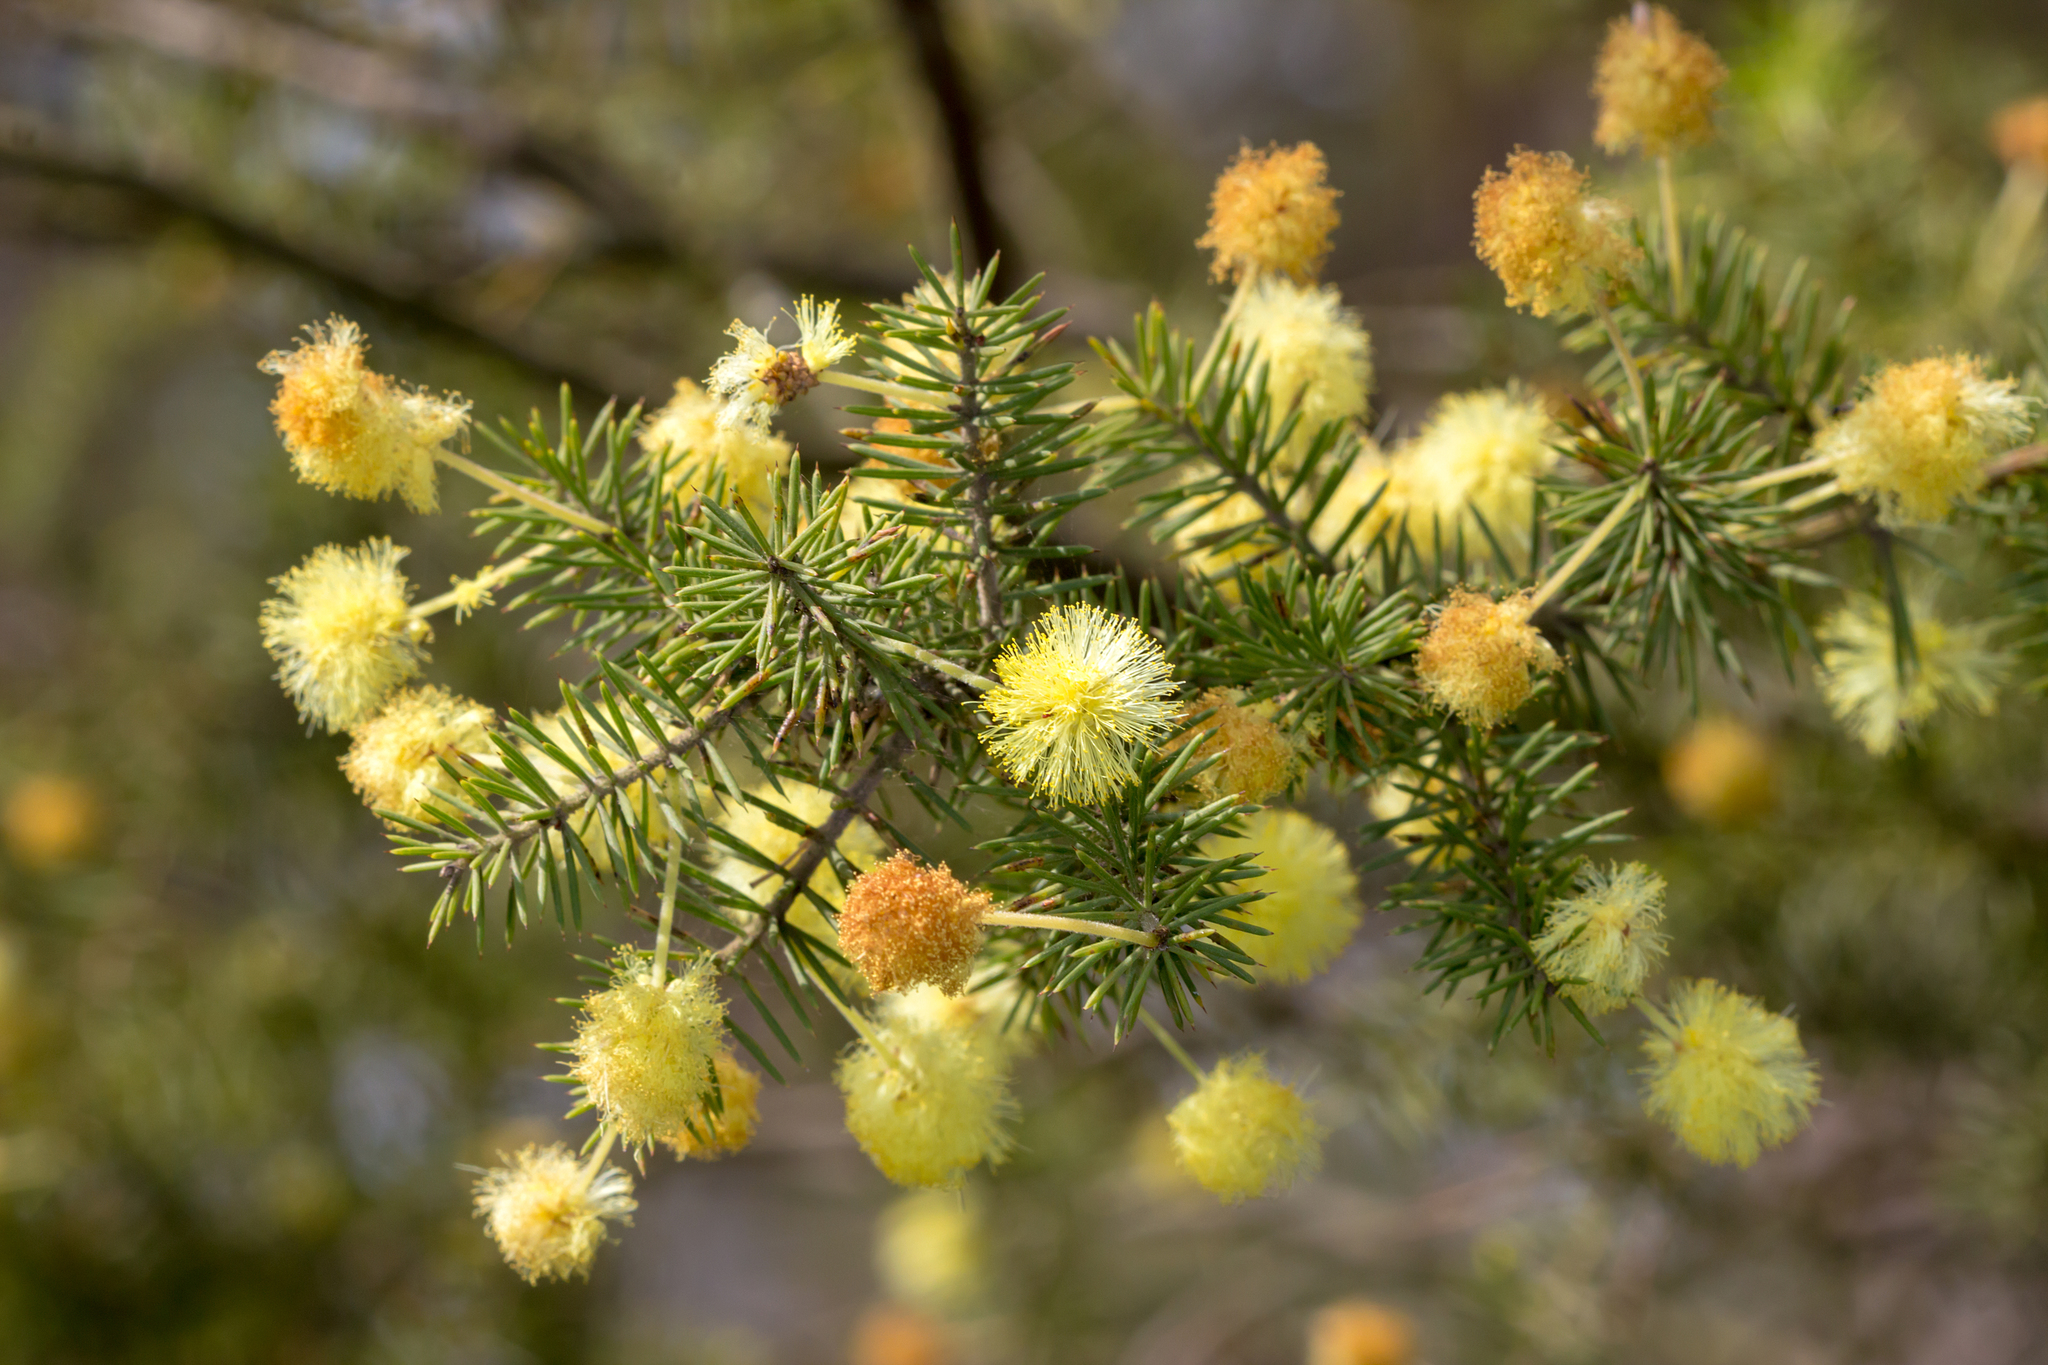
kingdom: Plantae
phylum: Tracheophyta
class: Magnoliopsida
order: Fabales
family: Fabaceae
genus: Acacia
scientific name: Acacia verticillata
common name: Prickly moses
